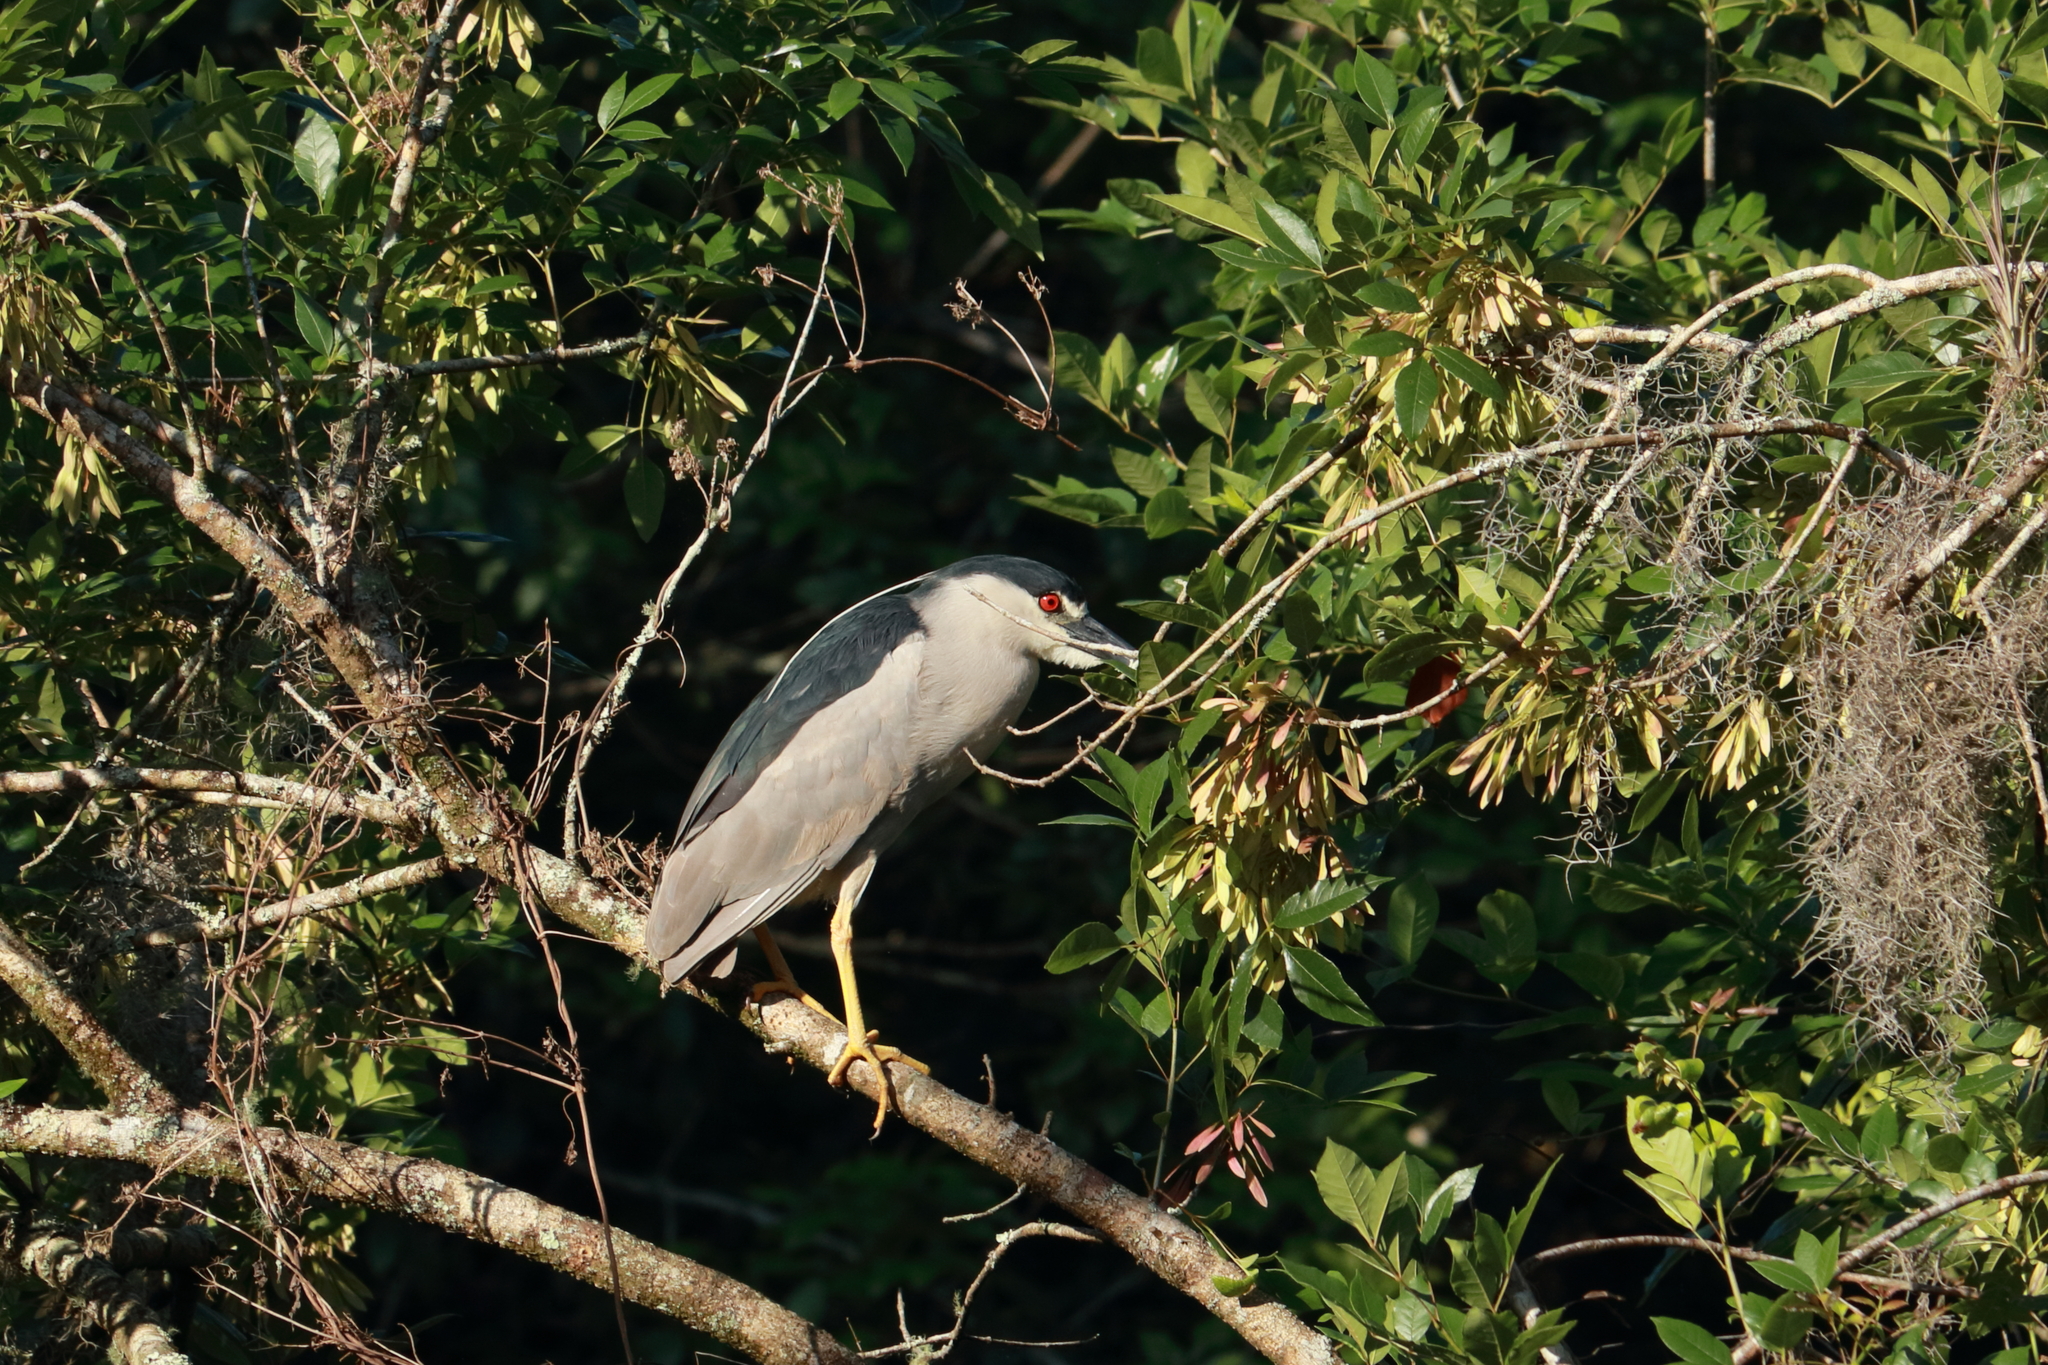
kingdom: Animalia
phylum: Chordata
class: Aves
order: Pelecaniformes
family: Ardeidae
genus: Nycticorax
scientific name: Nycticorax nycticorax
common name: Black-crowned night heron
